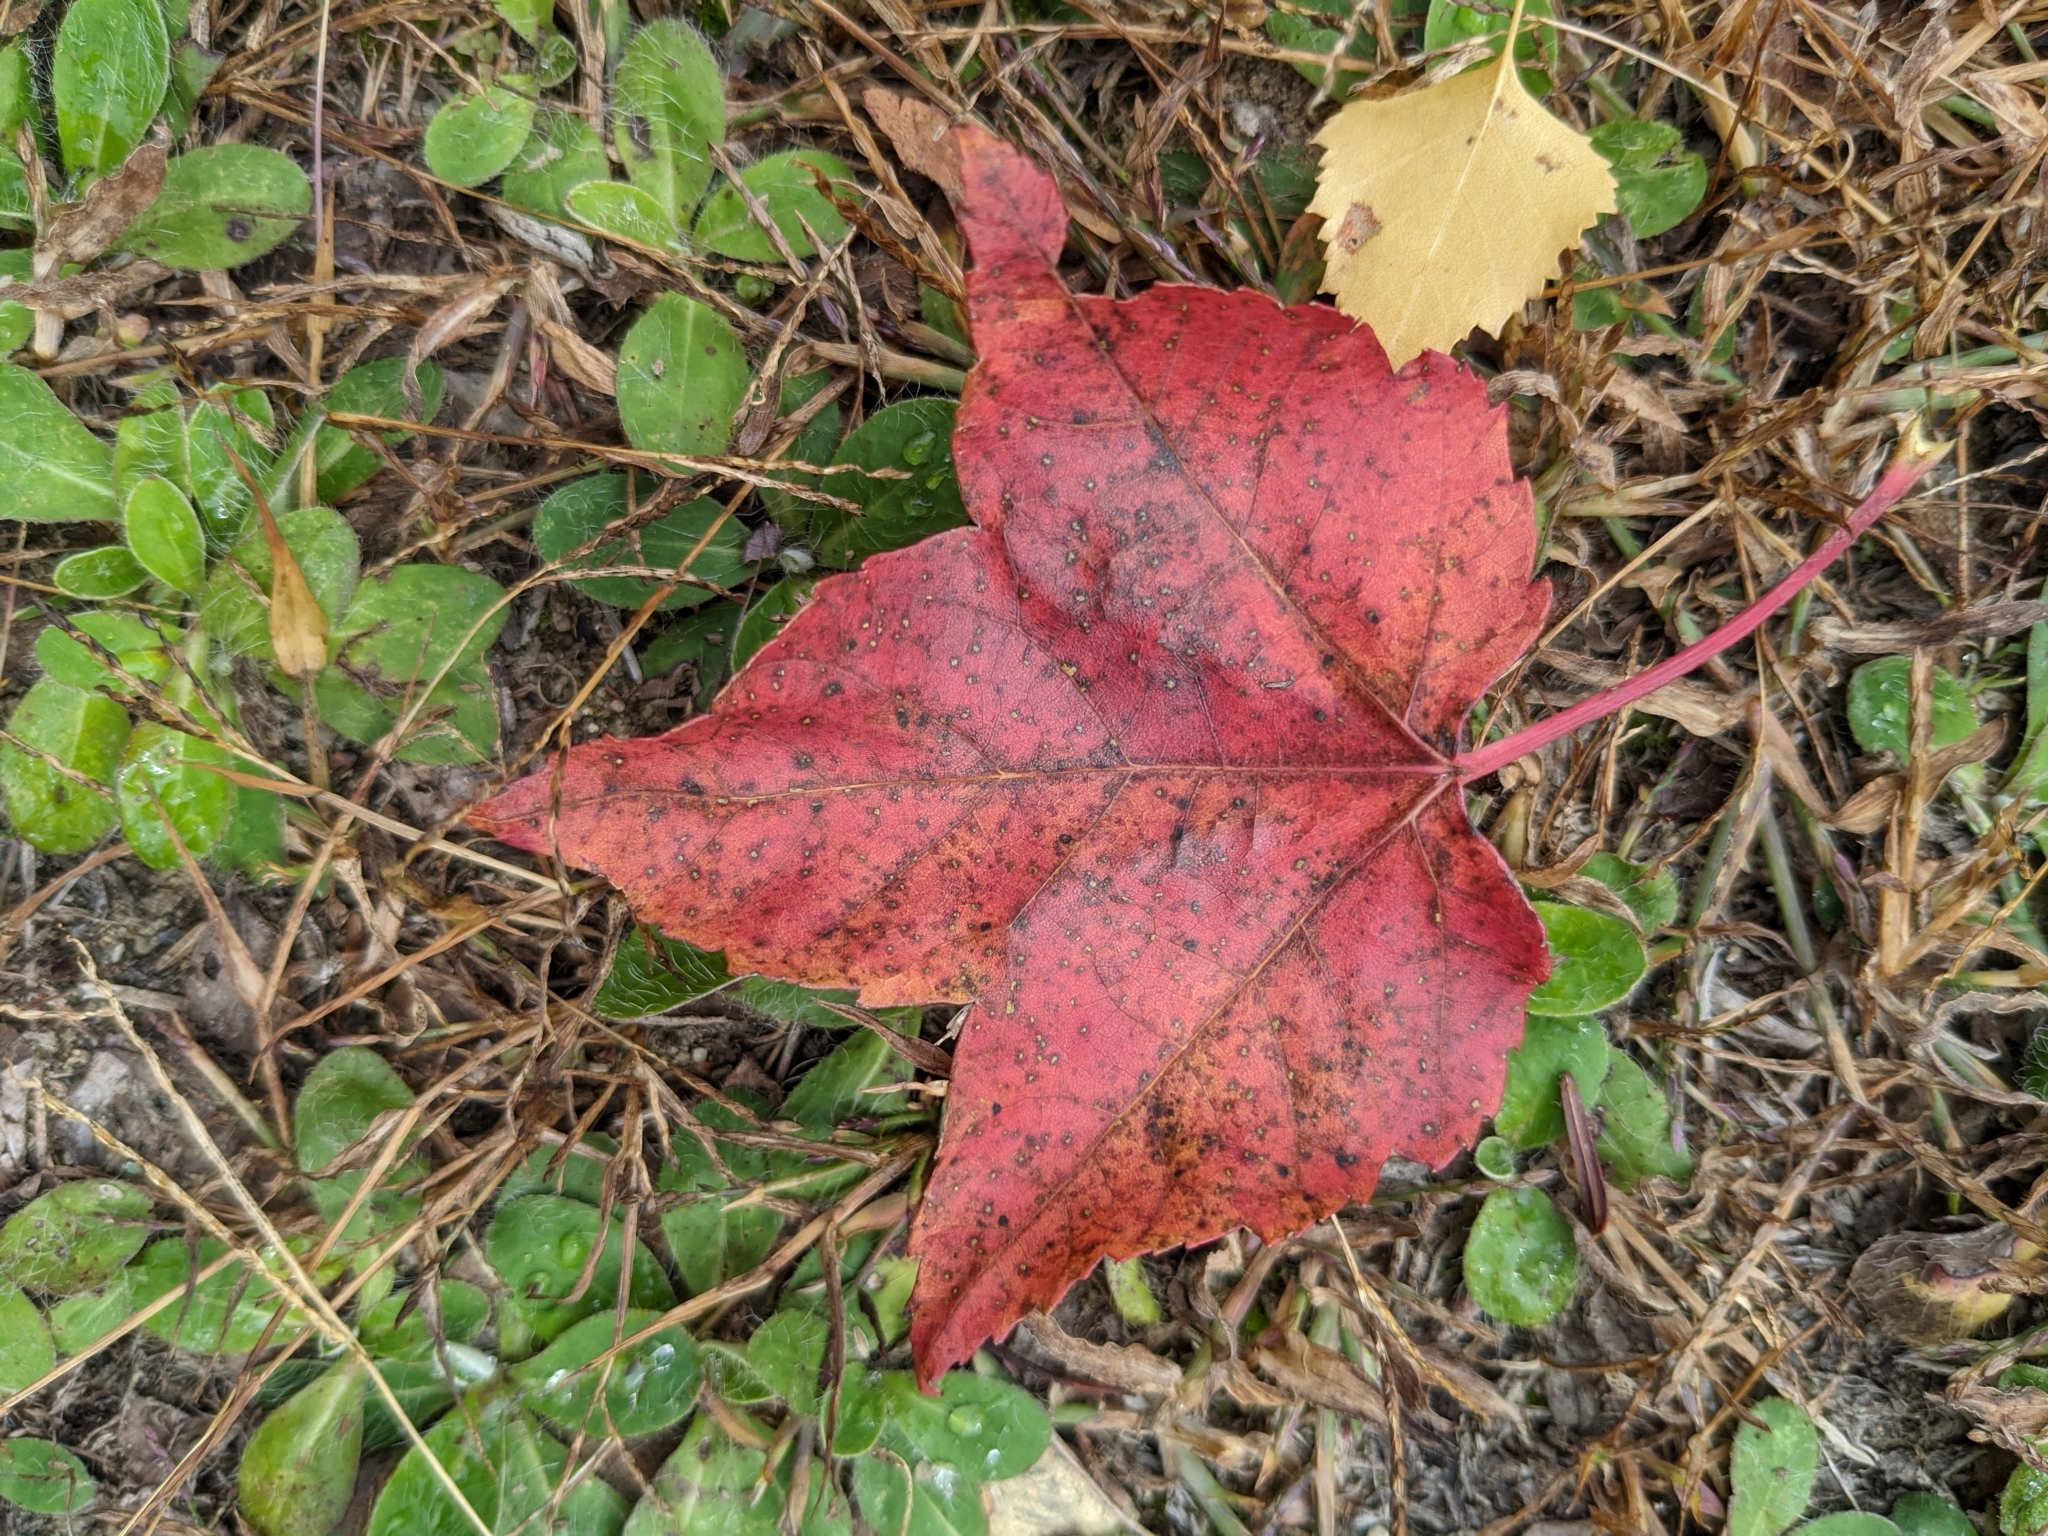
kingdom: Plantae
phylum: Tracheophyta
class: Magnoliopsida
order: Sapindales
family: Sapindaceae
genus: Acer
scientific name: Acer rubrum
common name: Red maple
